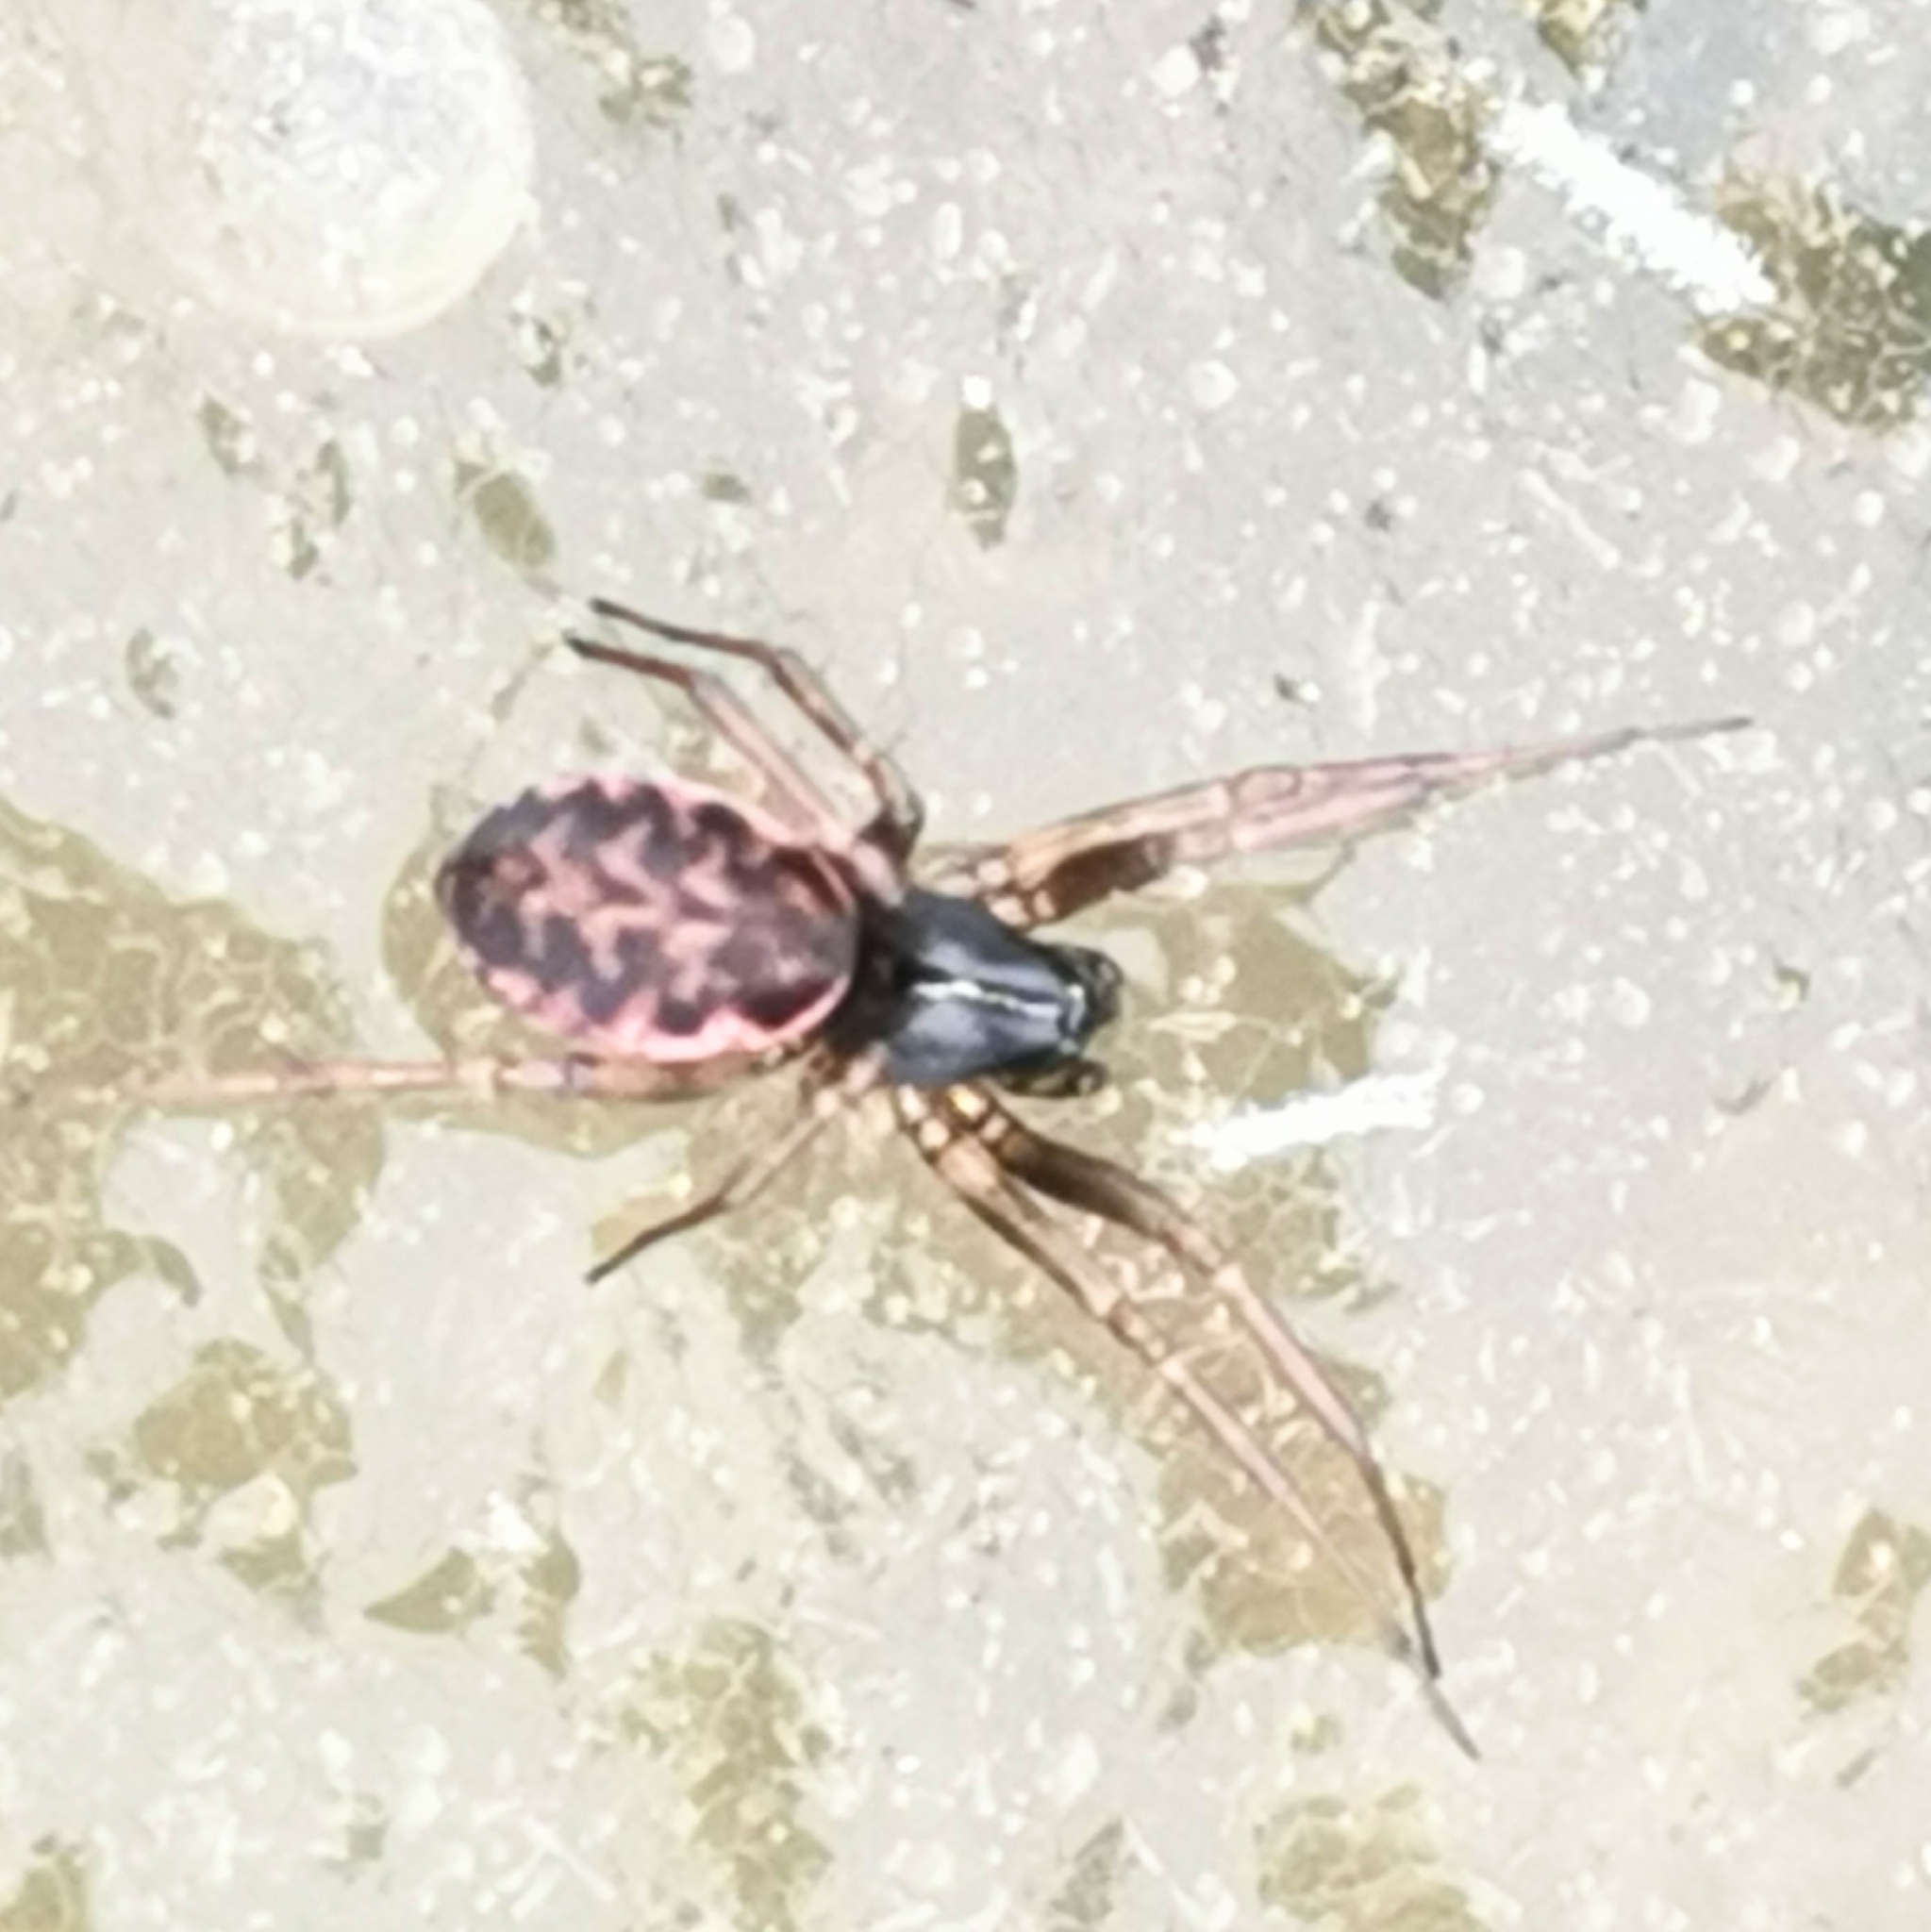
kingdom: Animalia
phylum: Arthropoda
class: Arachnida
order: Araneae
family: Linyphiidae
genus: Neriene
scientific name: Neriene clathrata
